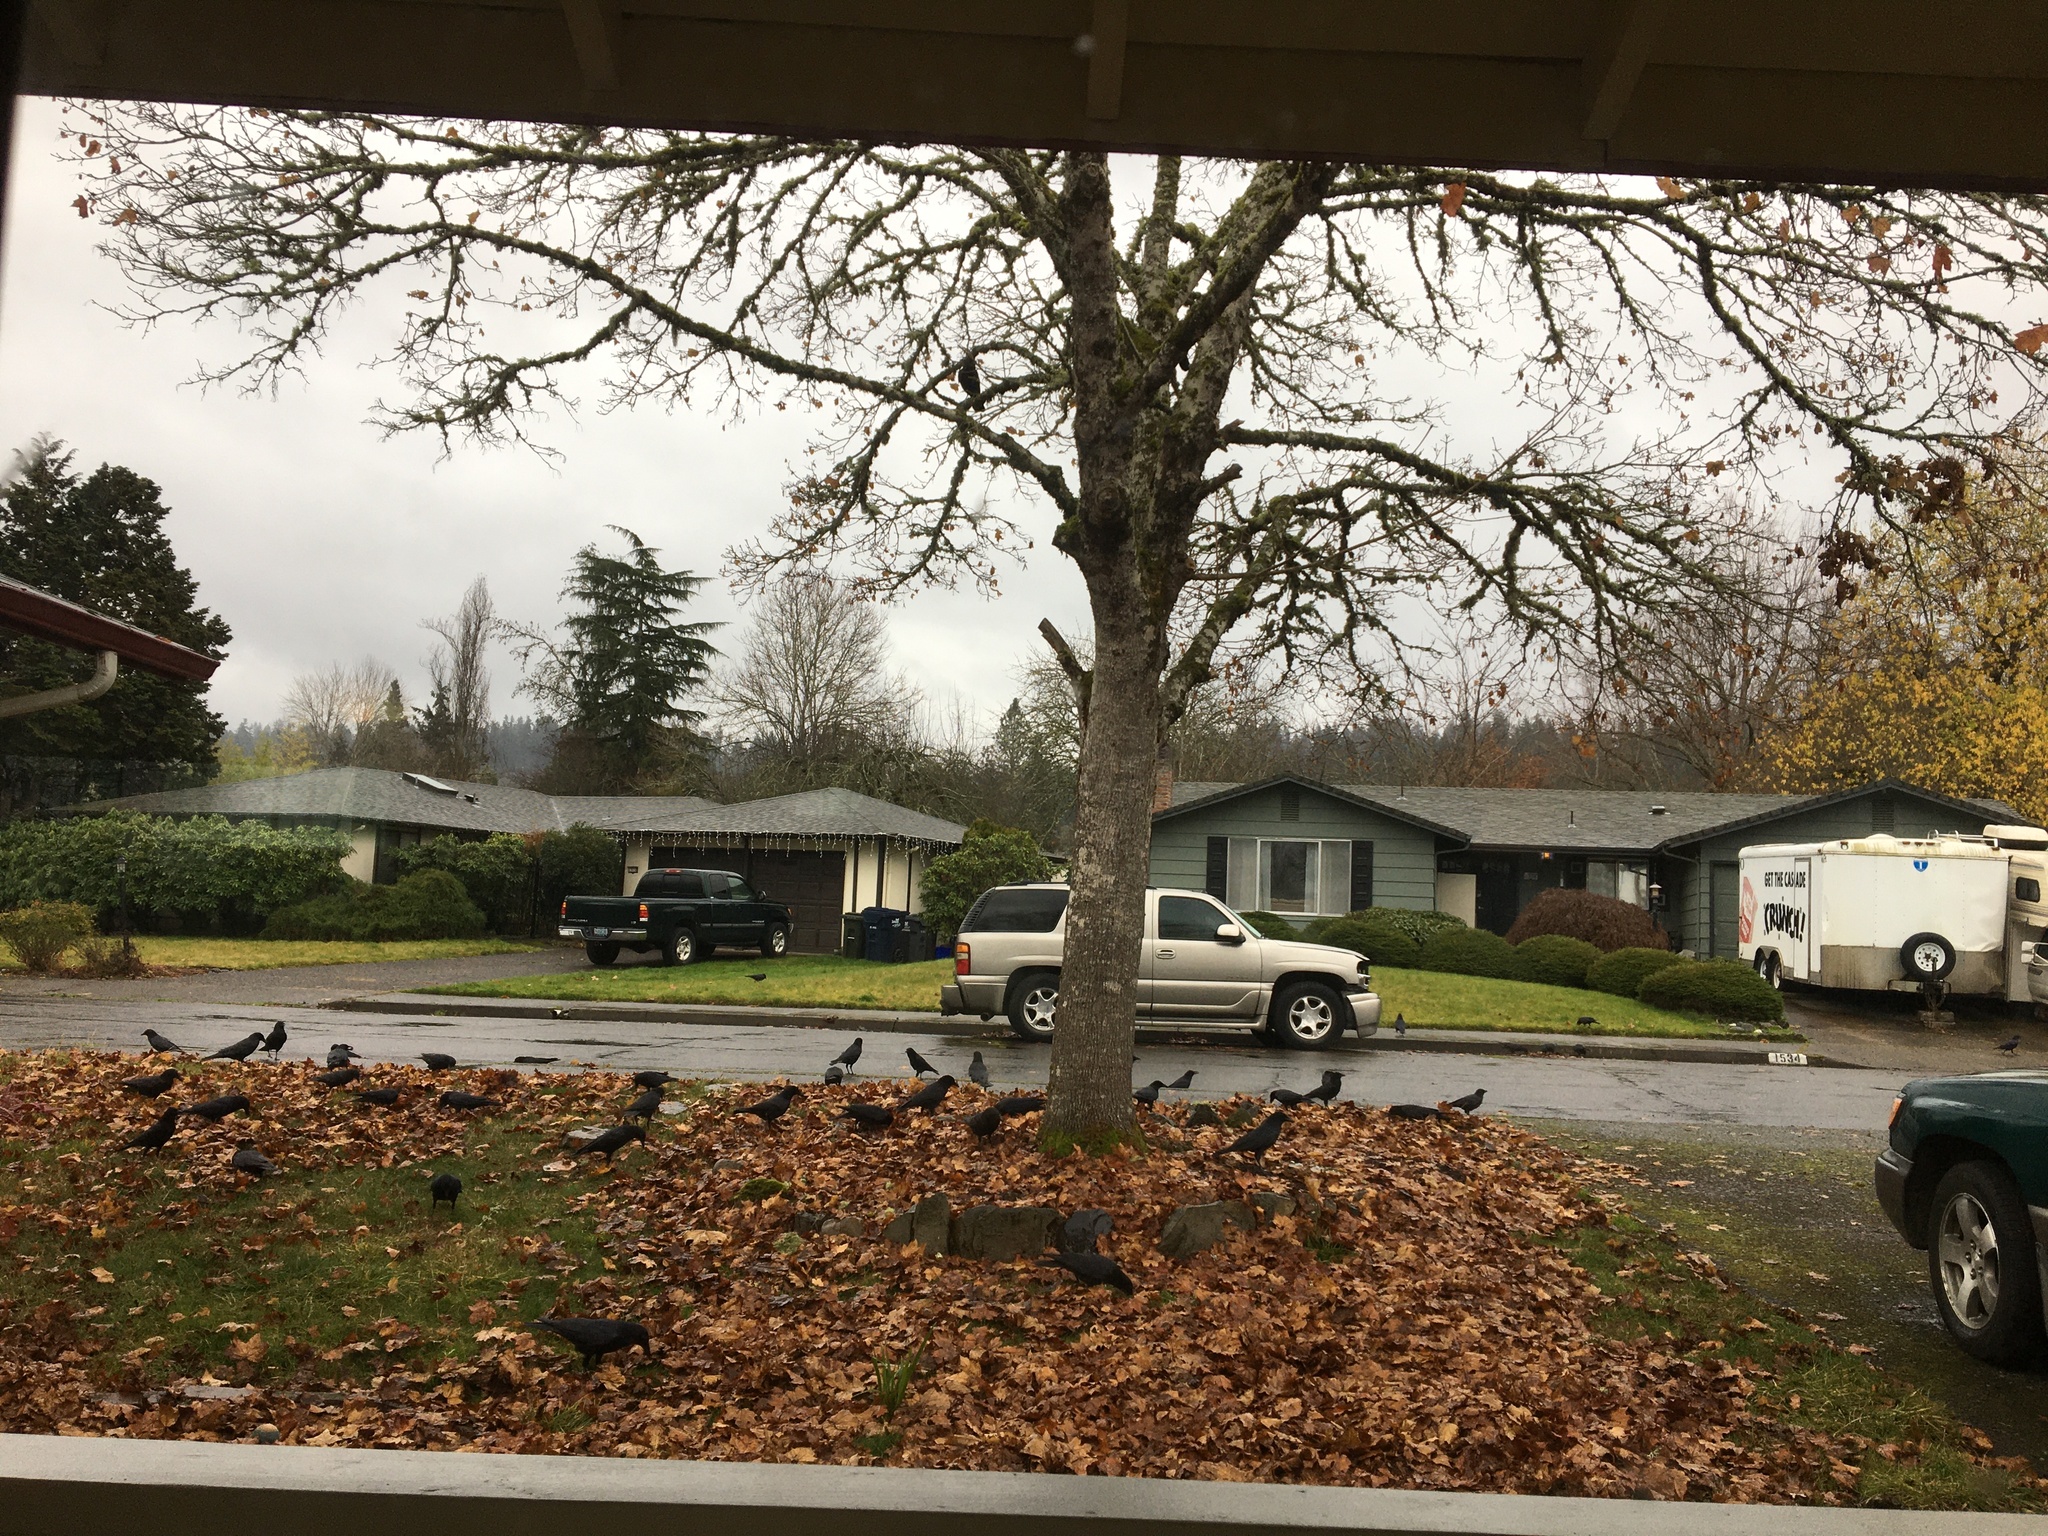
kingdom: Animalia
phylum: Chordata
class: Aves
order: Passeriformes
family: Corvidae
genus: Corvus
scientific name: Corvus brachyrhynchos
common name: American crow
